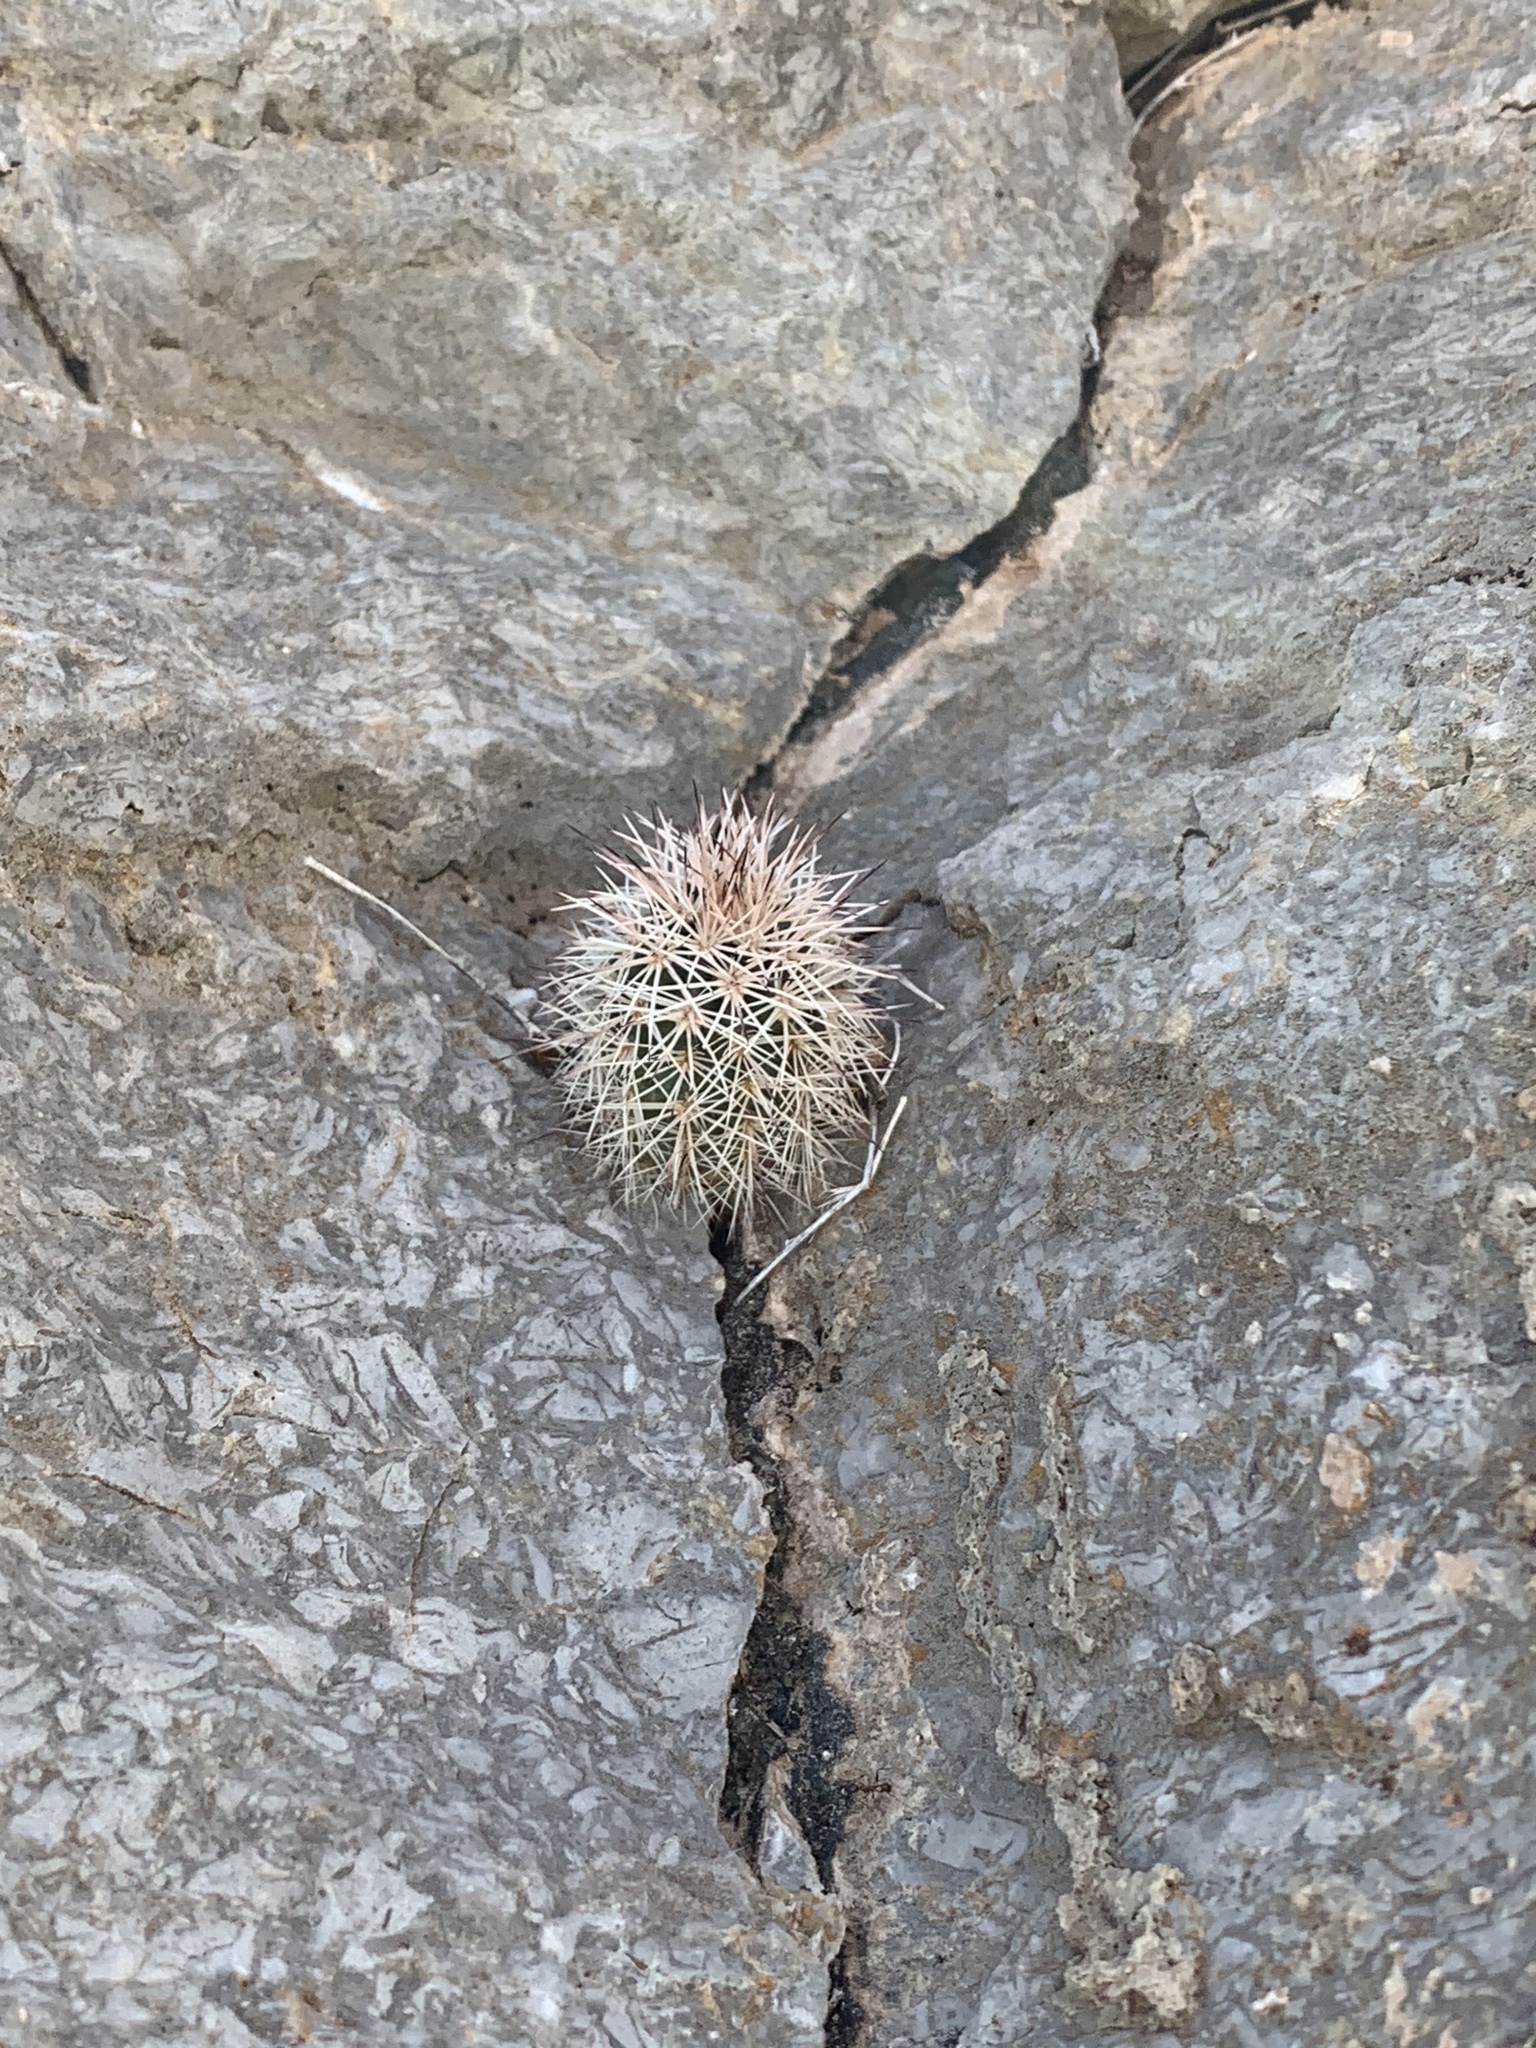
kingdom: Plantae
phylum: Tracheophyta
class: Magnoliopsida
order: Caryophyllales
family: Cactaceae
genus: Echinocereus
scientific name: Echinocereus dasyacanthus
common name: Spiny hedgehog cactus
